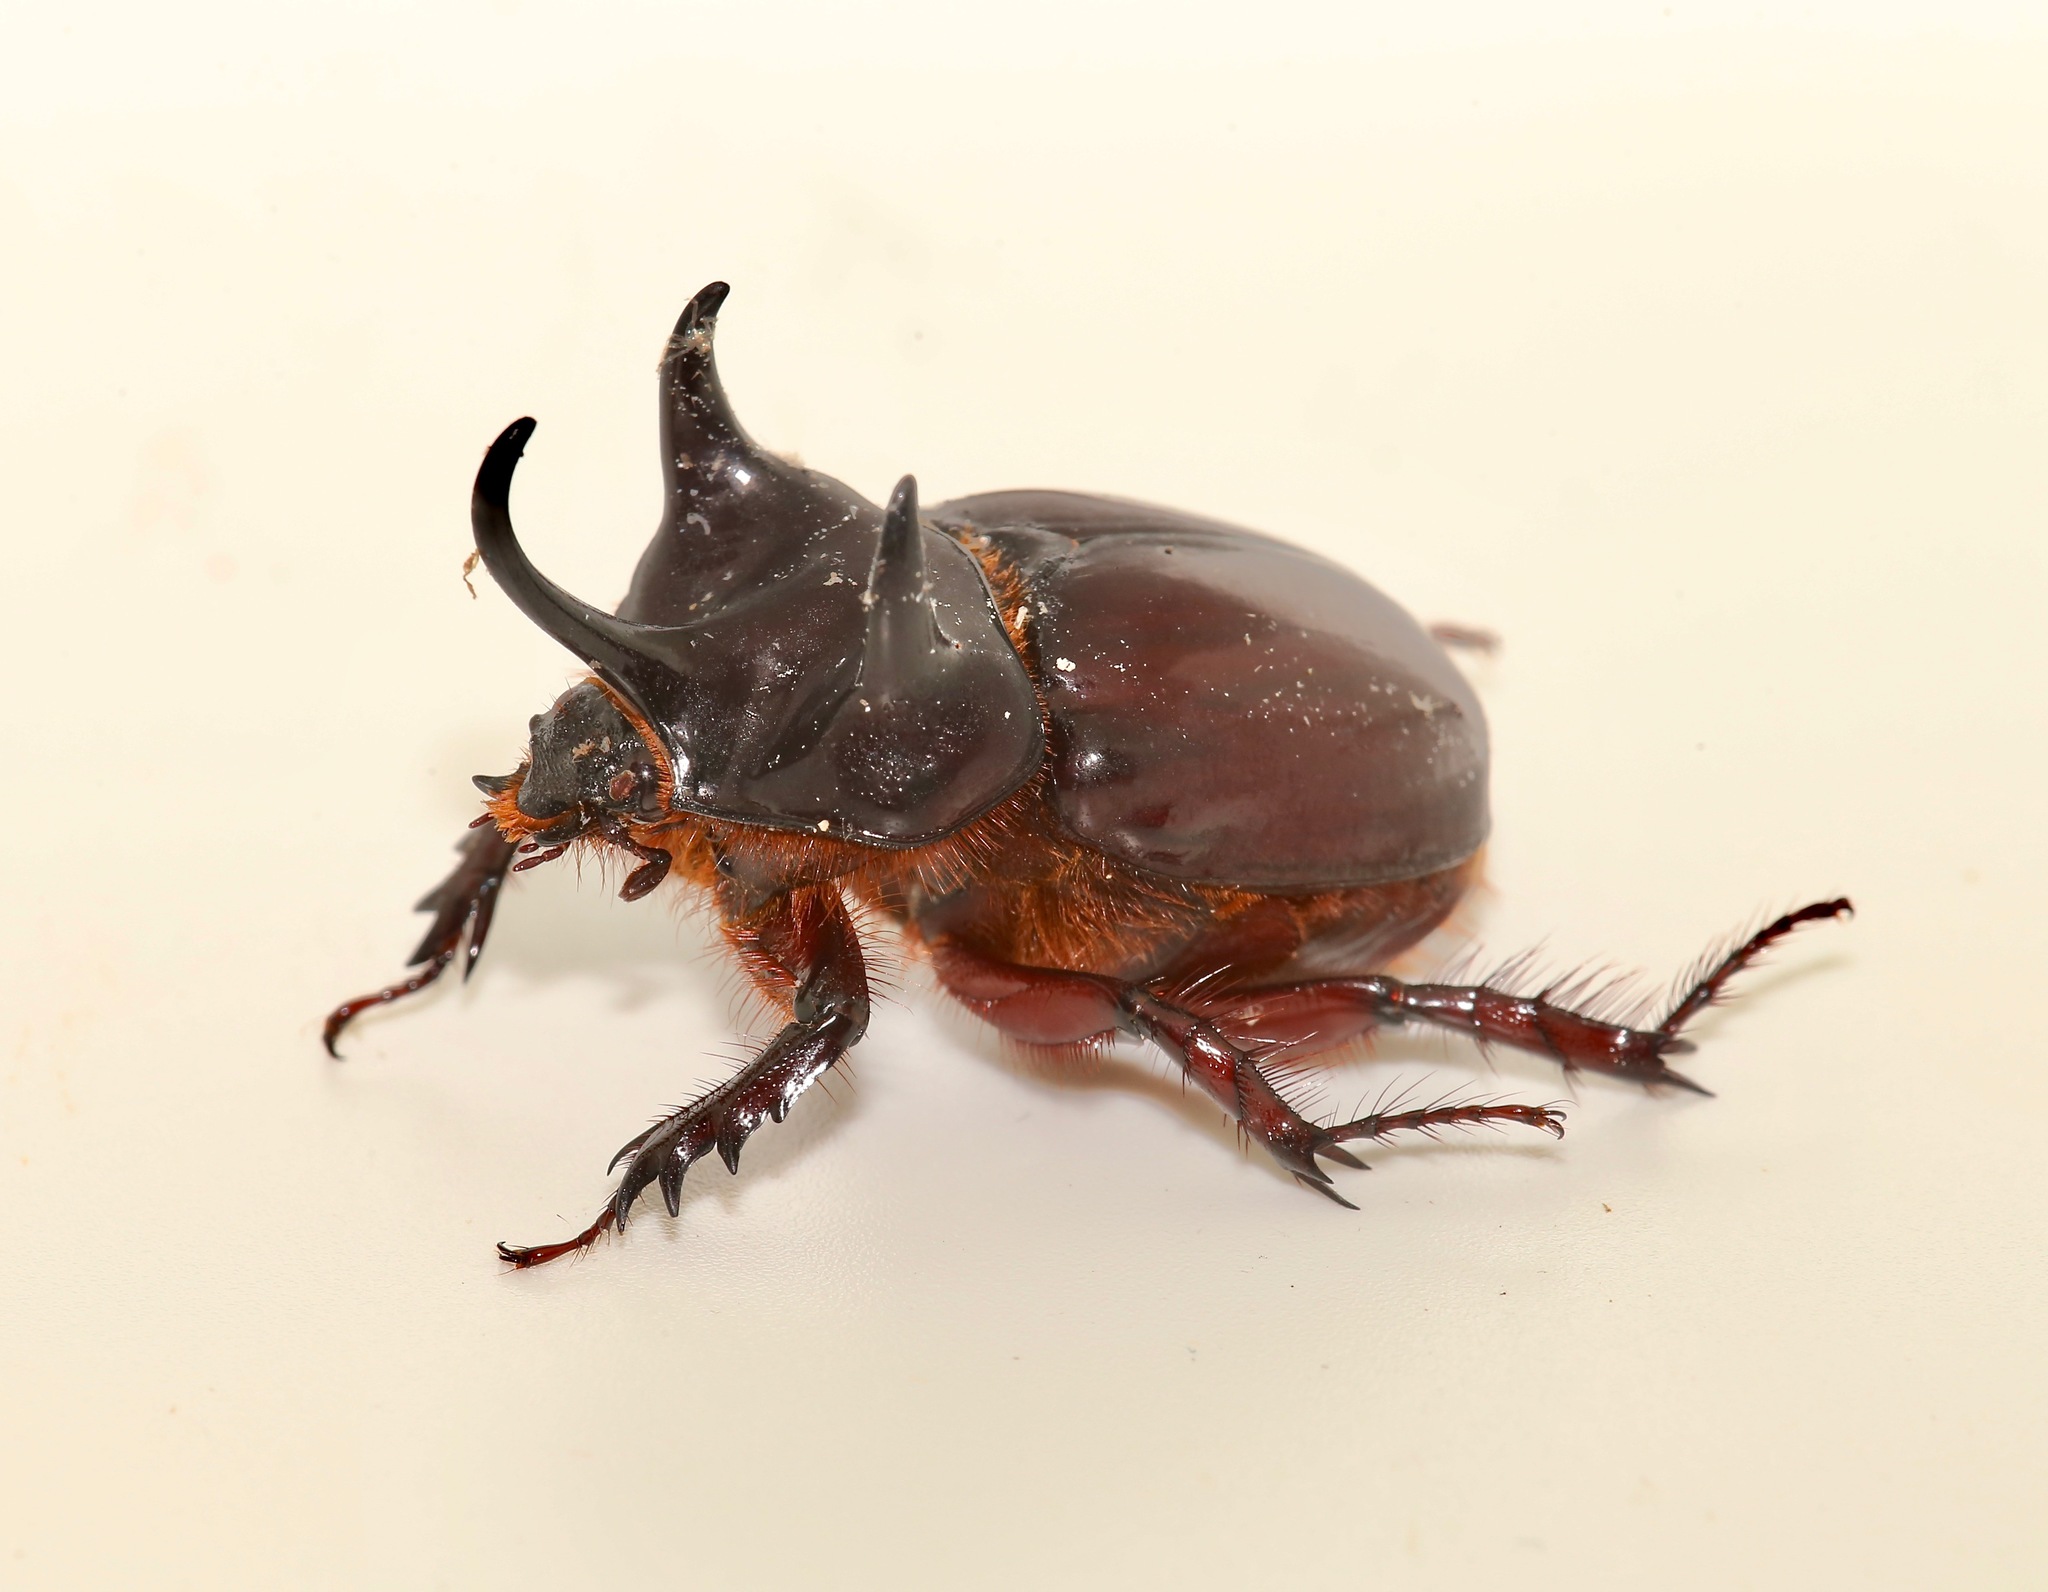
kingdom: Animalia
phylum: Arthropoda
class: Insecta
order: Coleoptera
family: Scarabaeidae
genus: Strategus
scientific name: Strategus antaeus
